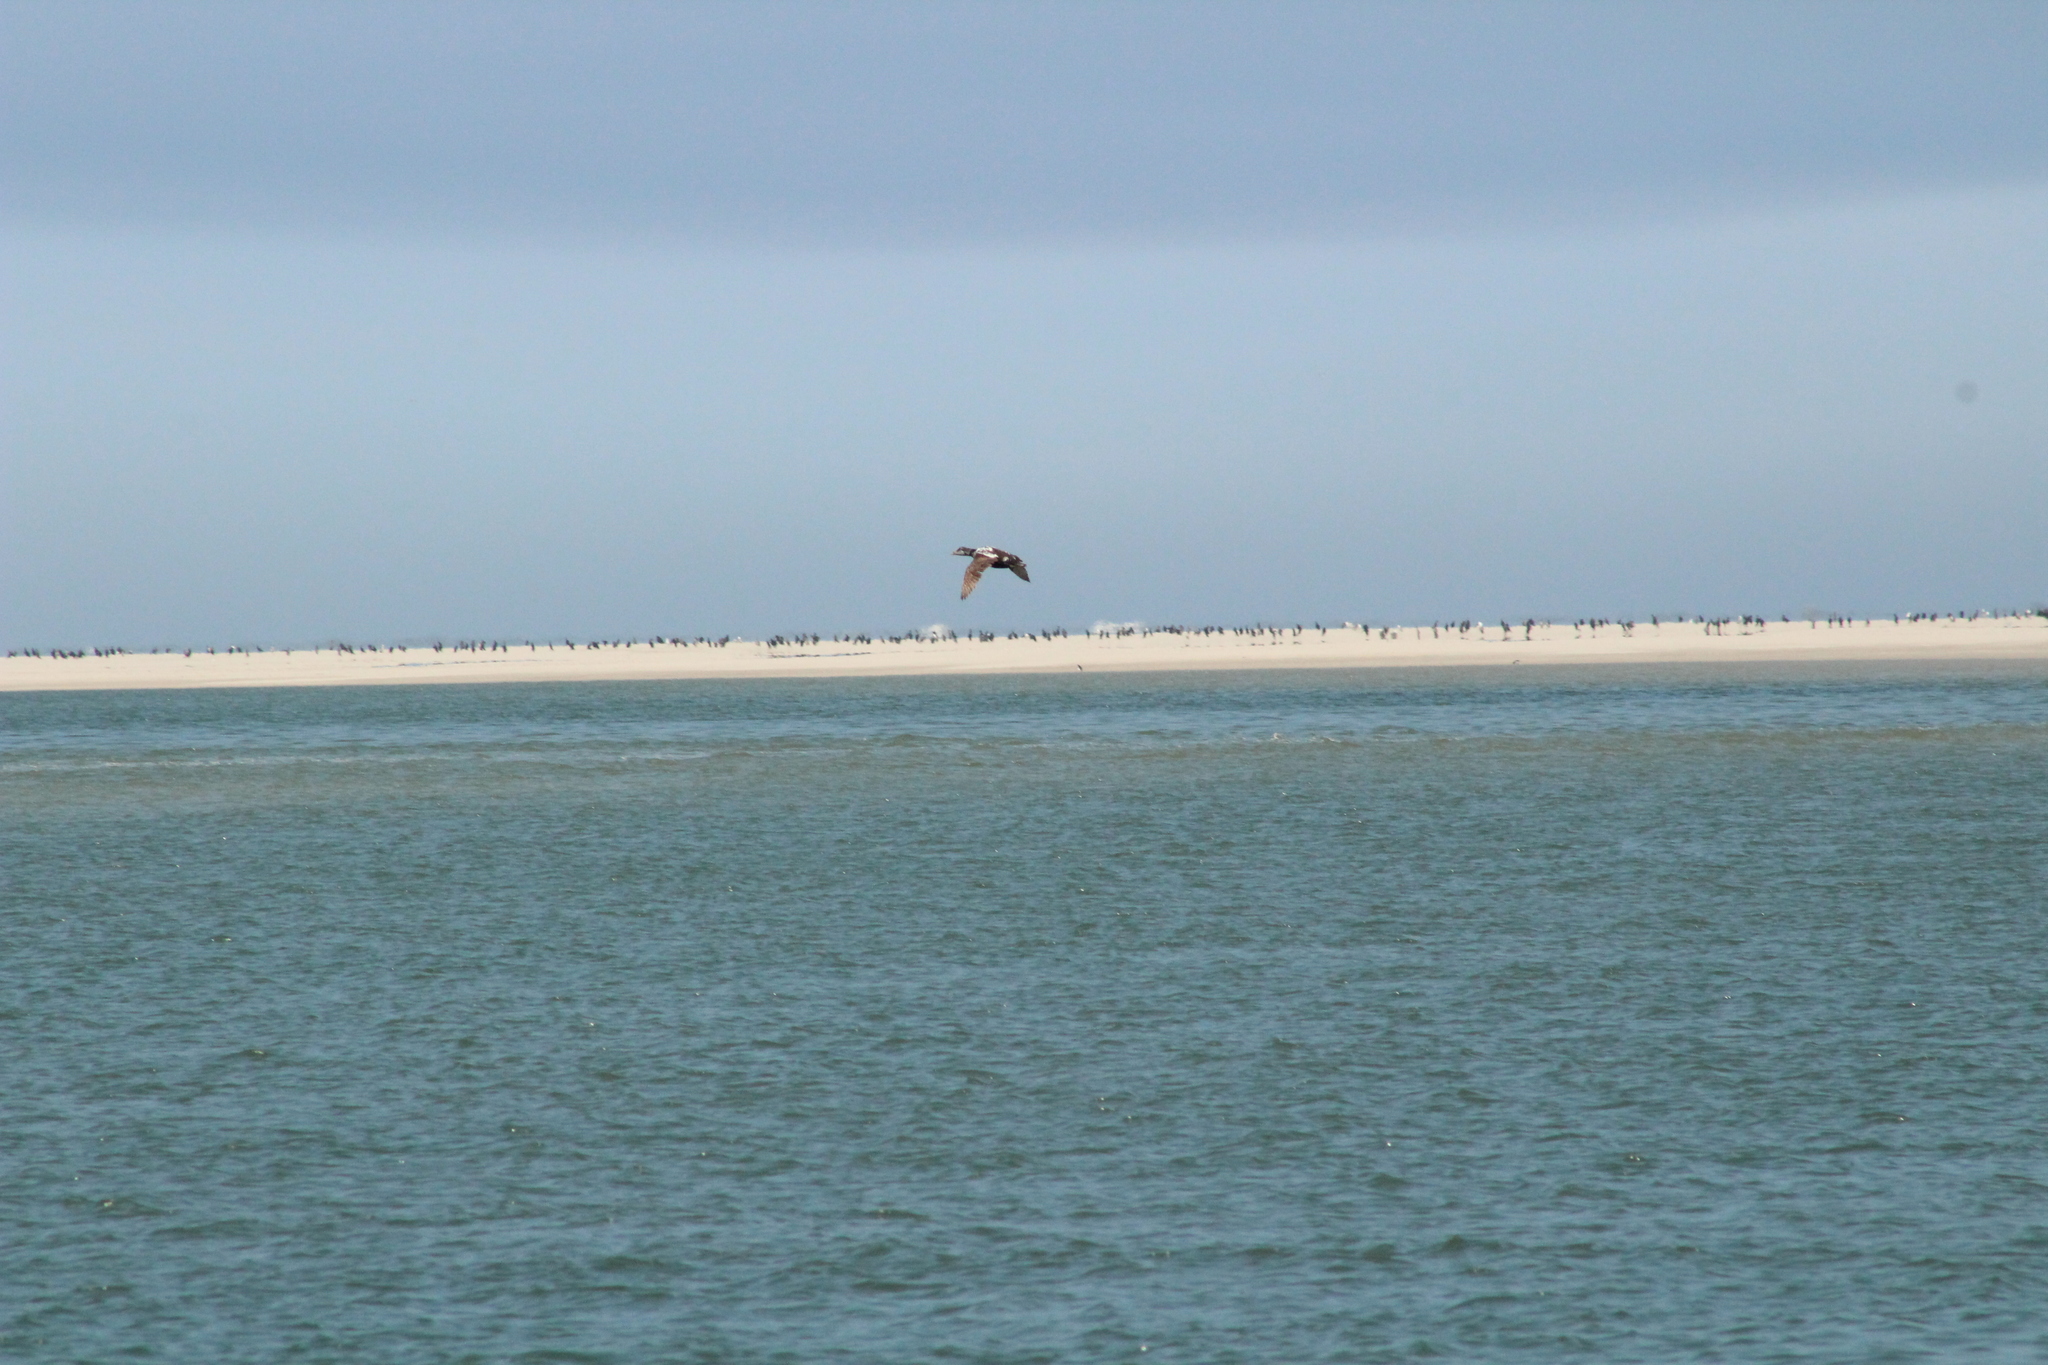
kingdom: Animalia
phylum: Chordata
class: Aves
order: Anseriformes
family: Anatidae
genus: Somateria
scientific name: Somateria mollissima
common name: Common eider
